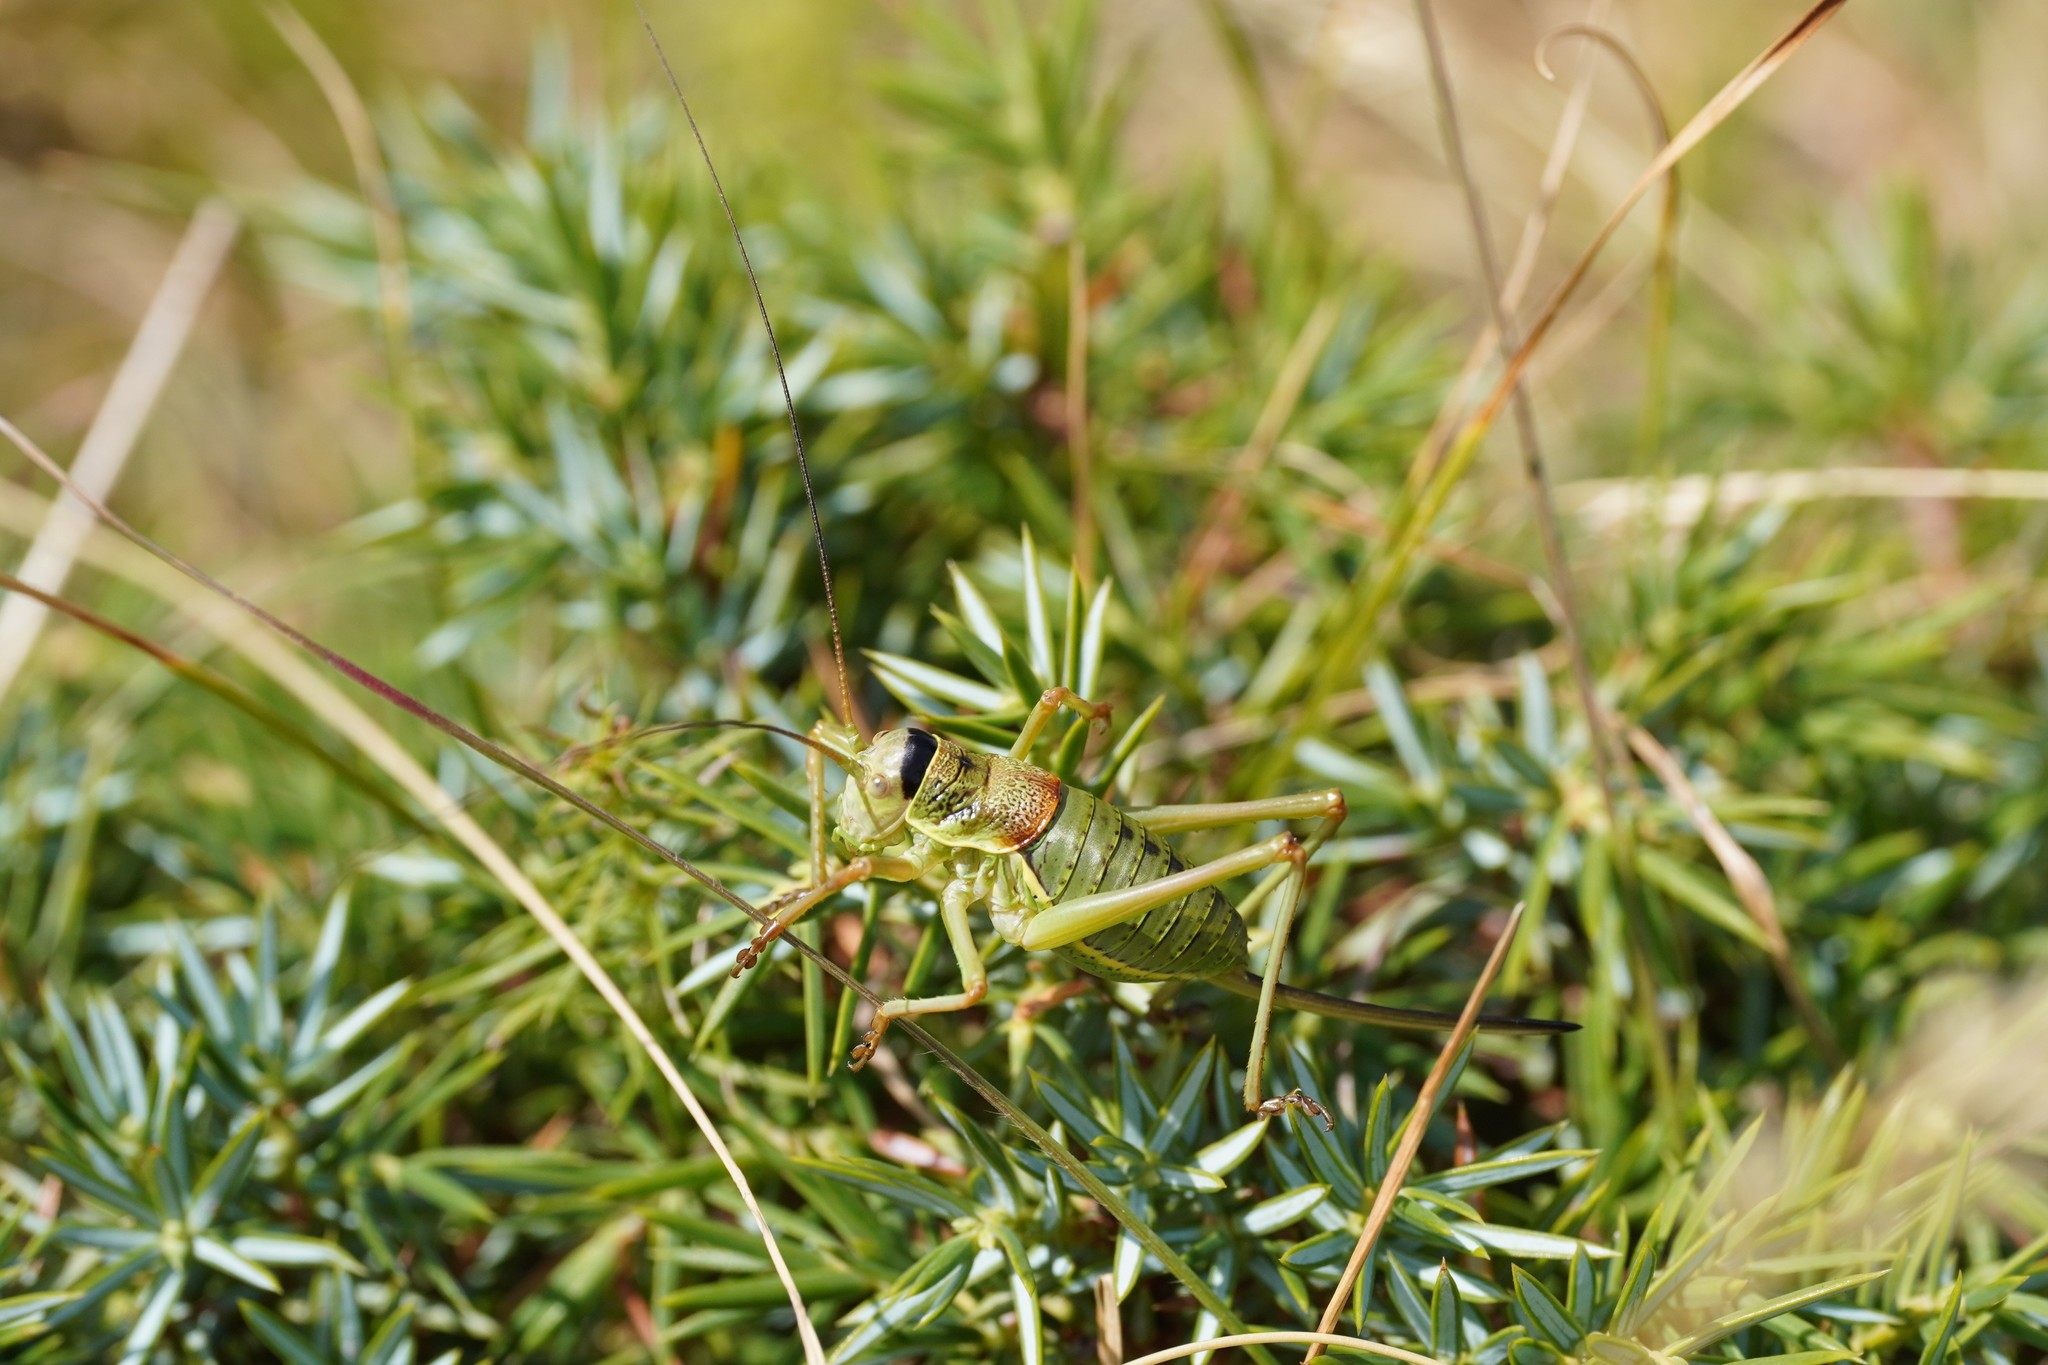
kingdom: Animalia
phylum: Arthropoda
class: Insecta
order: Orthoptera
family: Tettigoniidae
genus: Ephippiger
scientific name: Ephippiger diurnus
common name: Western saddle bush-cricket
